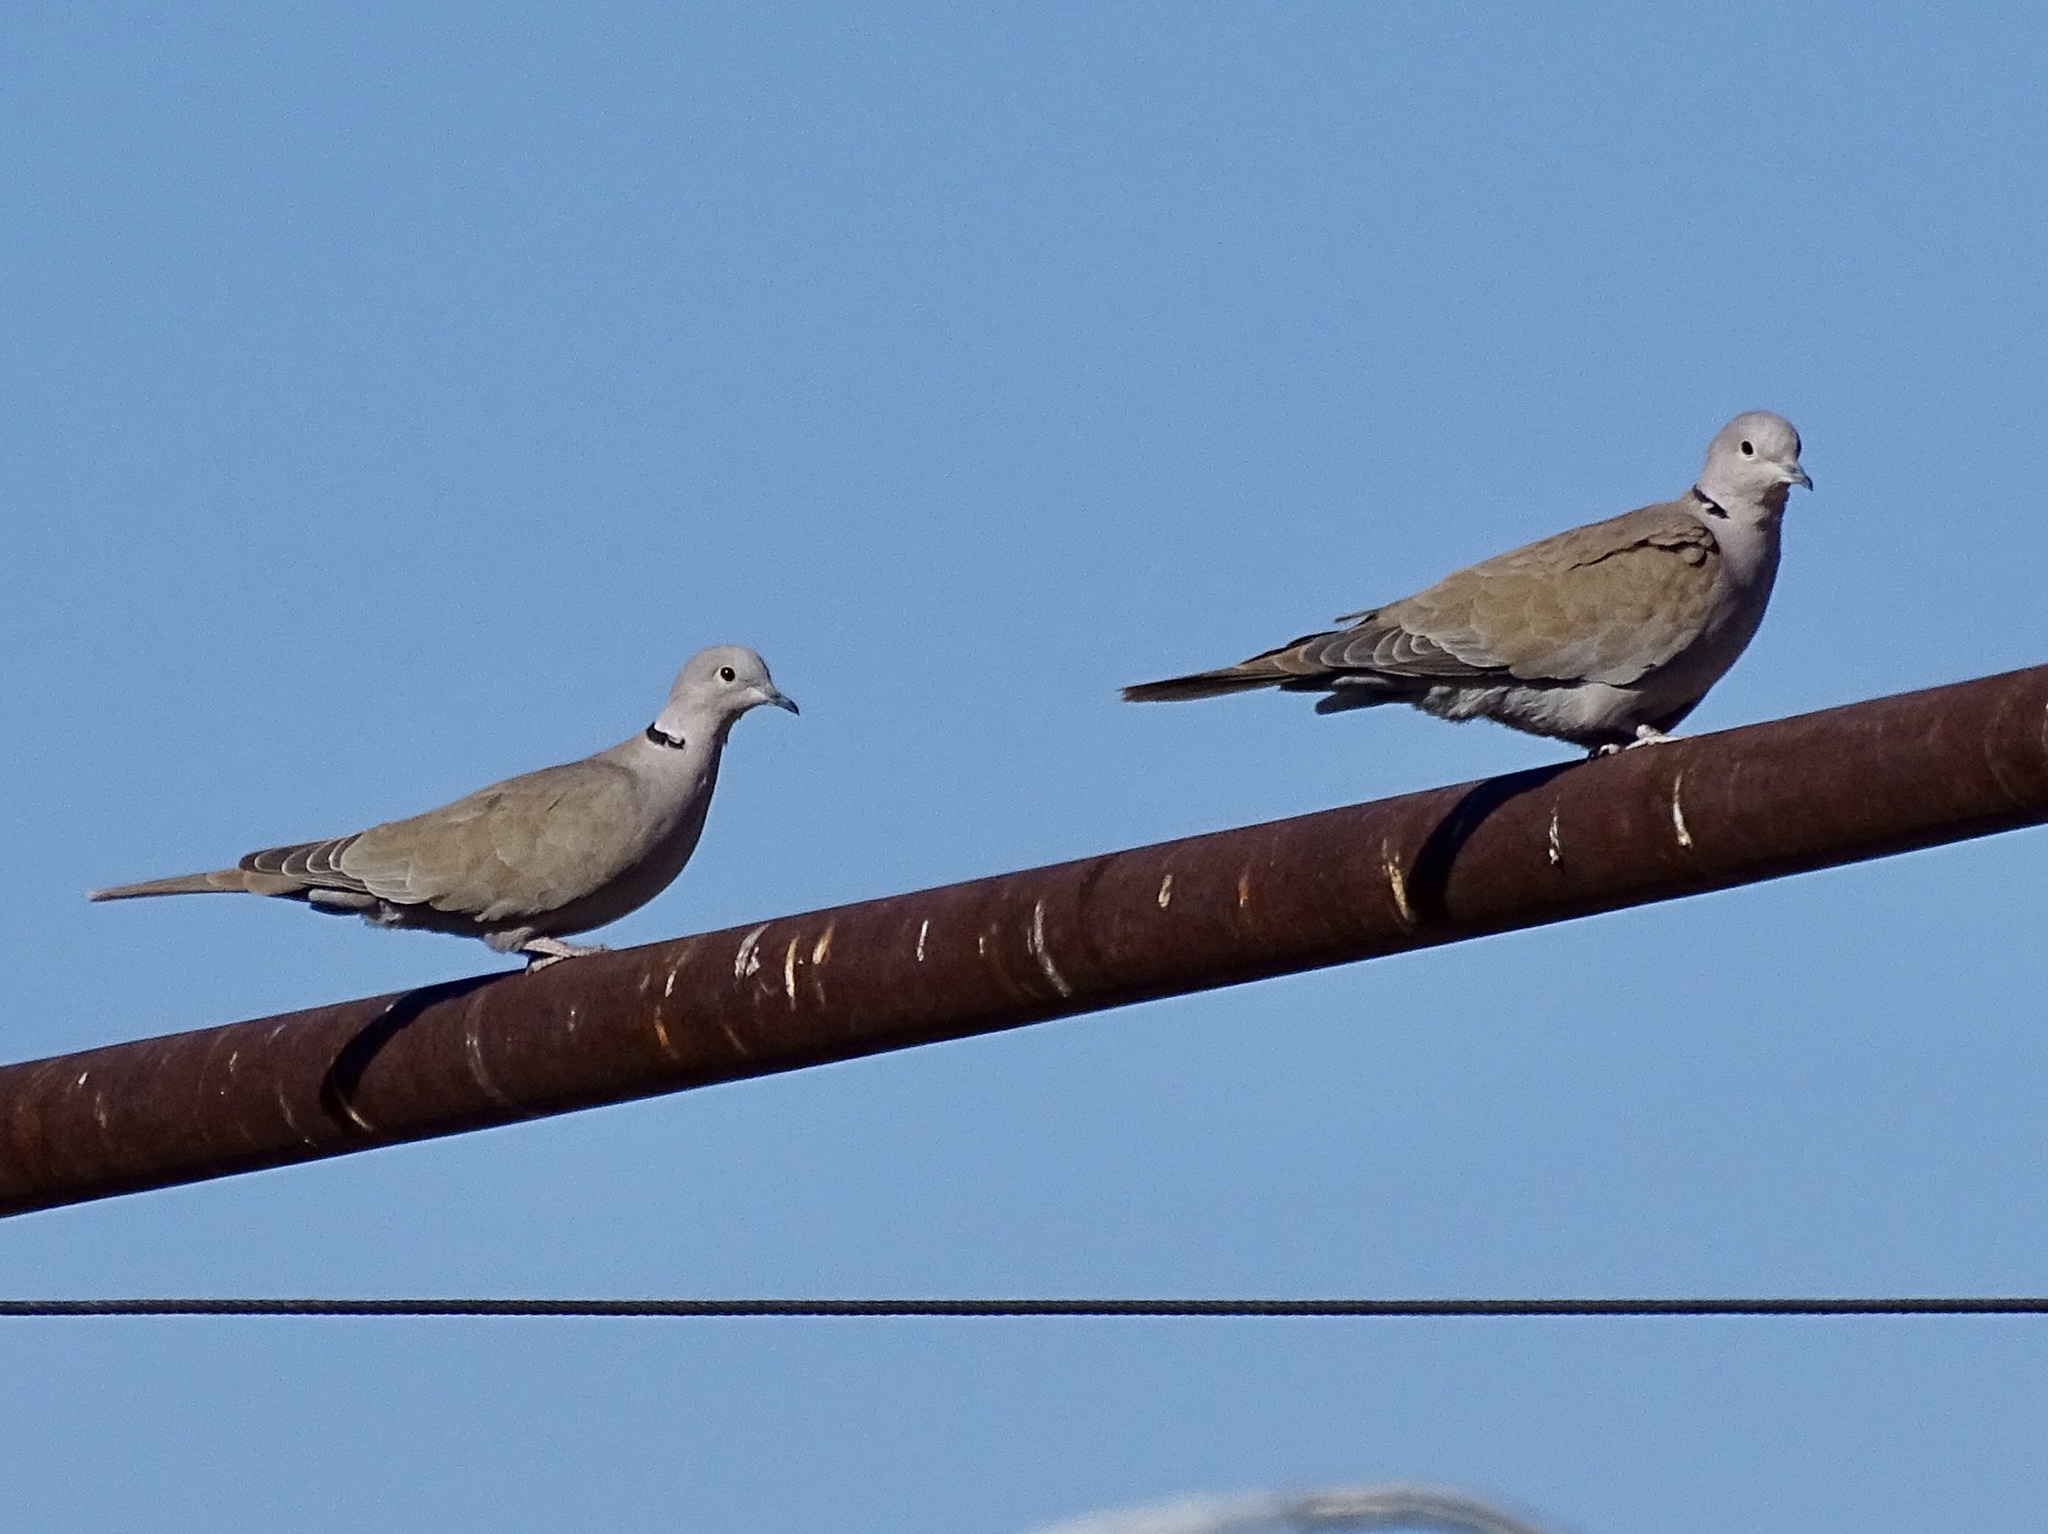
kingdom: Animalia
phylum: Chordata
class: Aves
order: Columbiformes
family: Columbidae
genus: Streptopelia
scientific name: Streptopelia decaocto
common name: Eurasian collared dove
